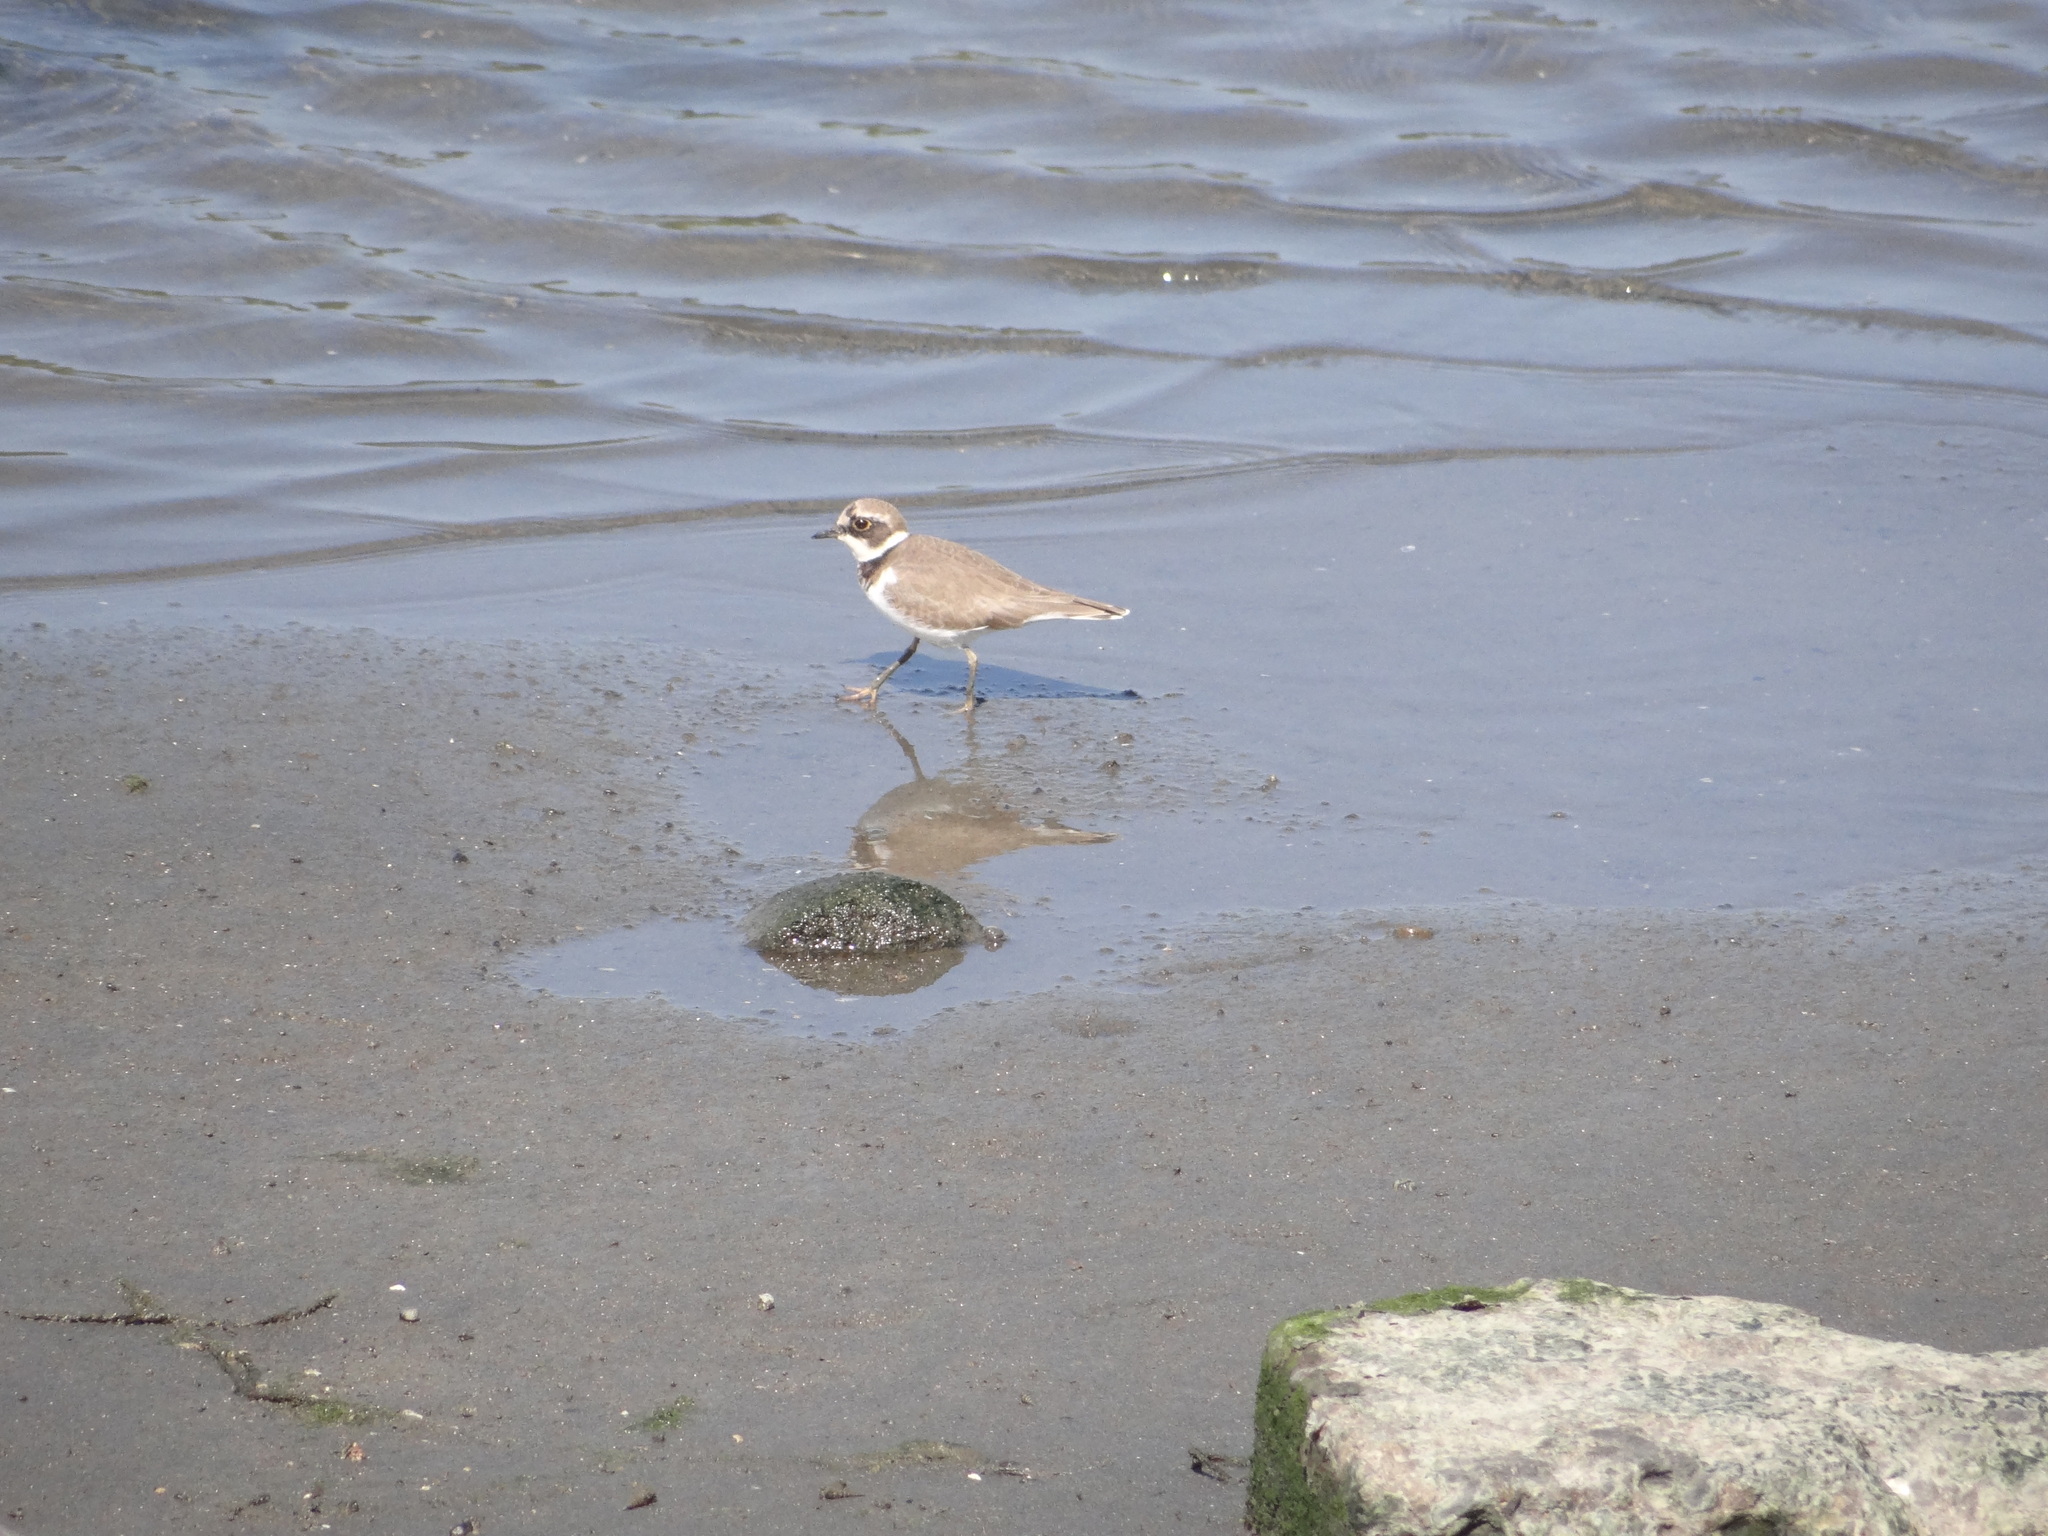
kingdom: Animalia
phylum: Chordata
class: Aves
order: Charadriiformes
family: Charadriidae
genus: Charadrius
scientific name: Charadrius dubius
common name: Little ringed plover
